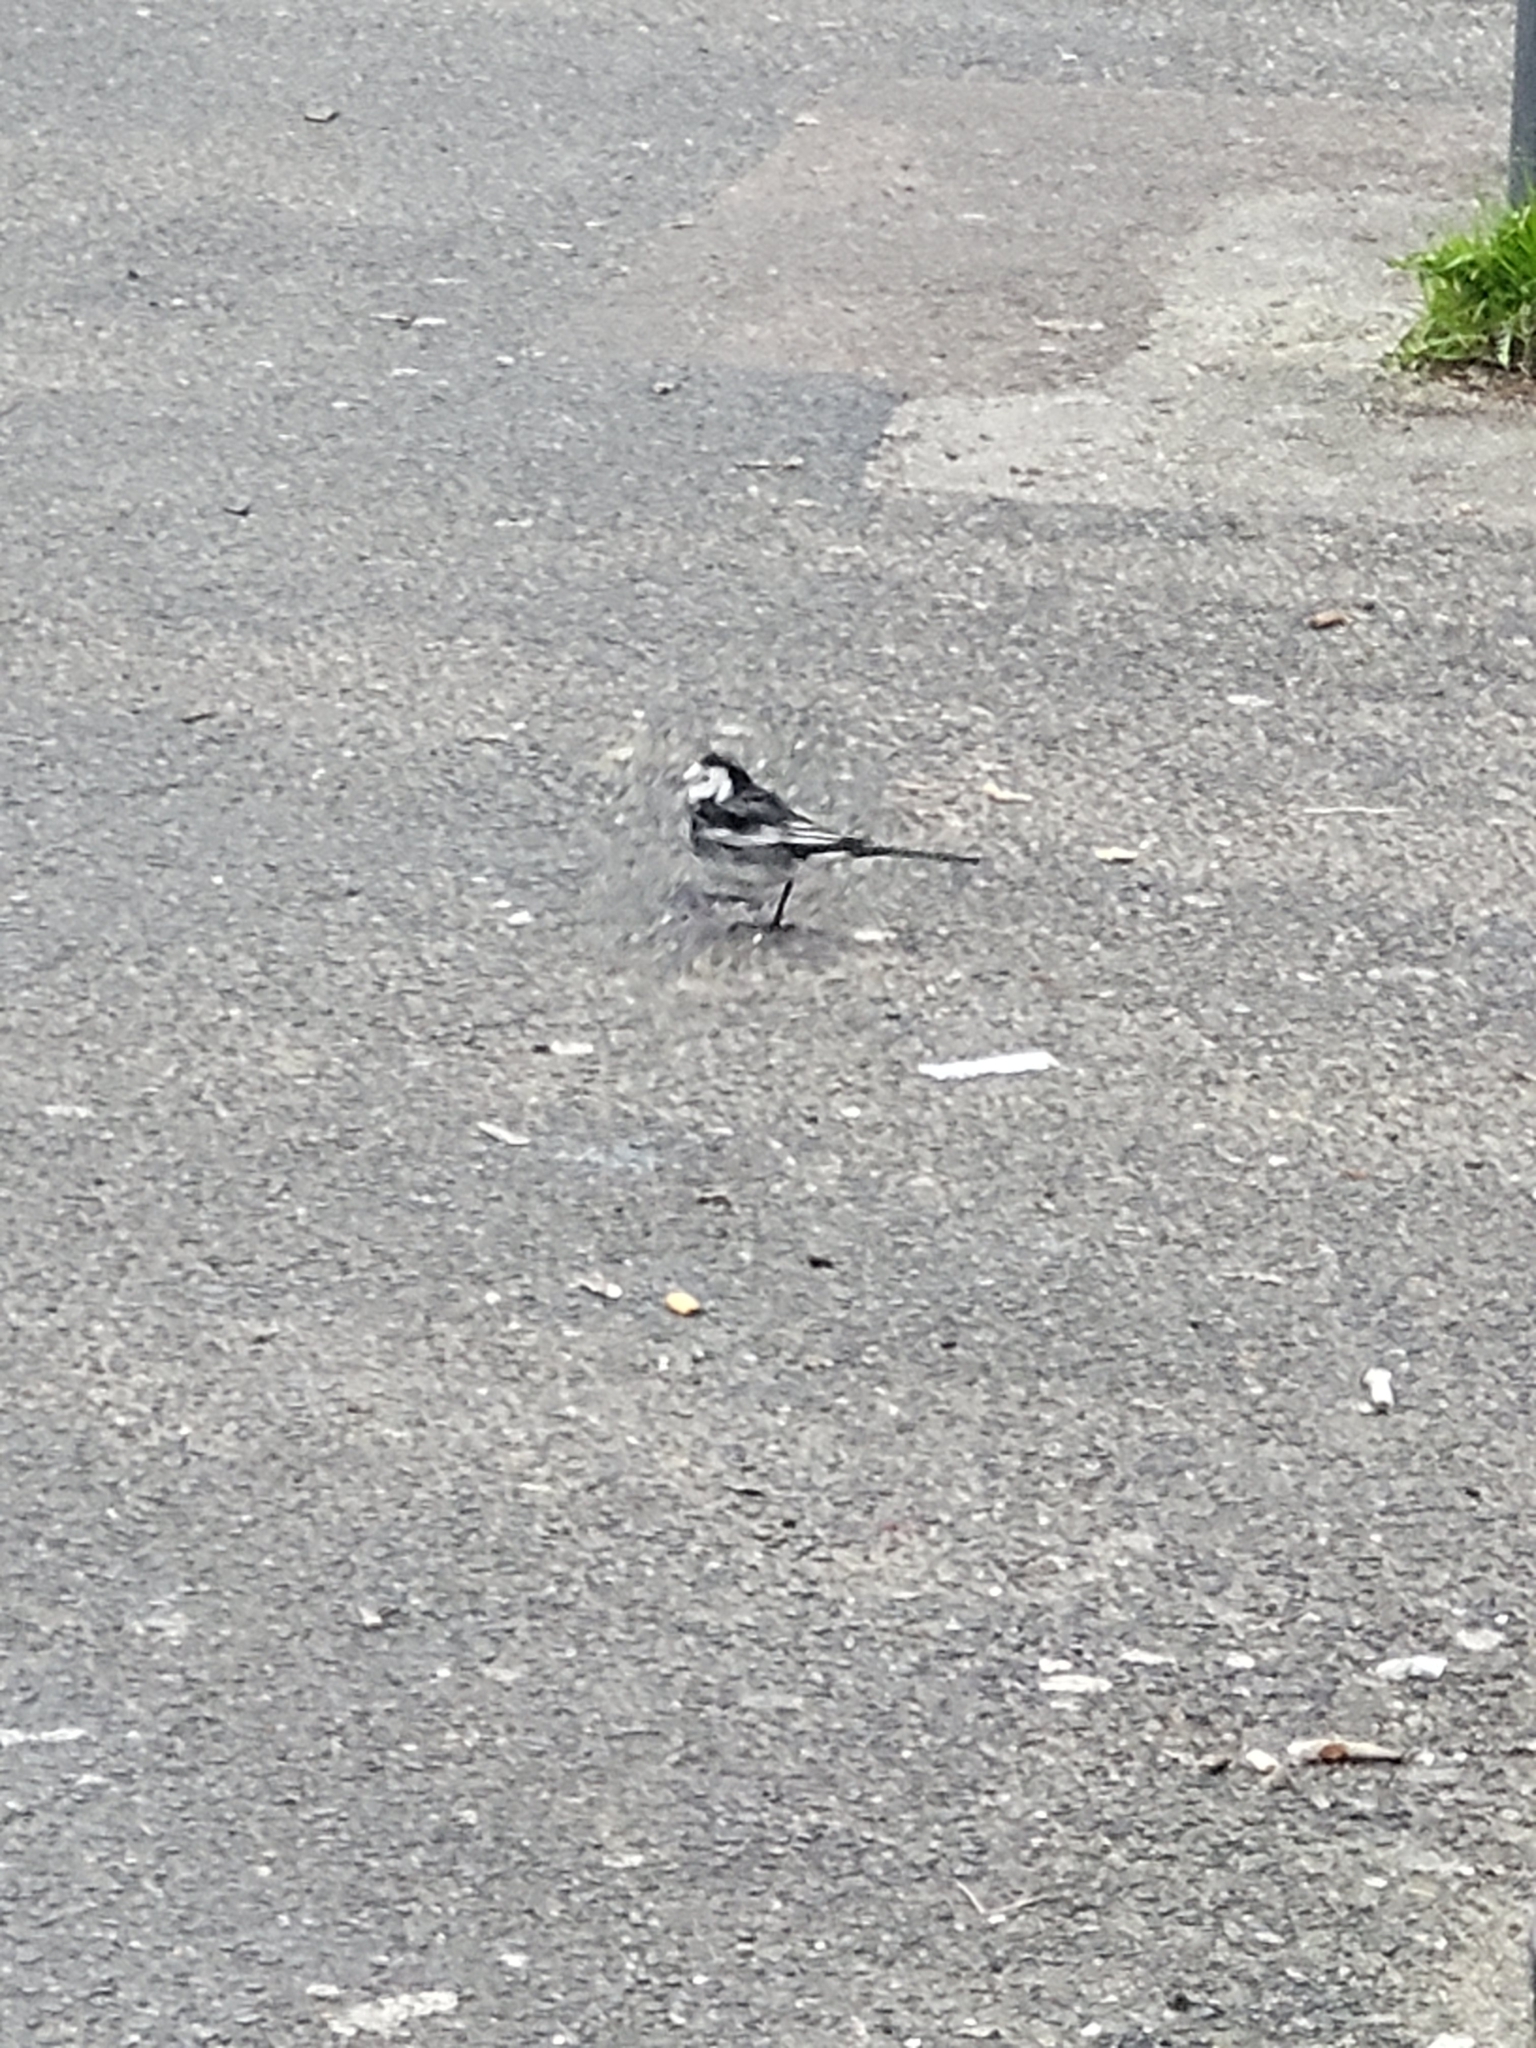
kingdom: Animalia
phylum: Chordata
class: Aves
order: Passeriformes
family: Motacillidae
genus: Motacilla
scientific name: Motacilla alba
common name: White wagtail
